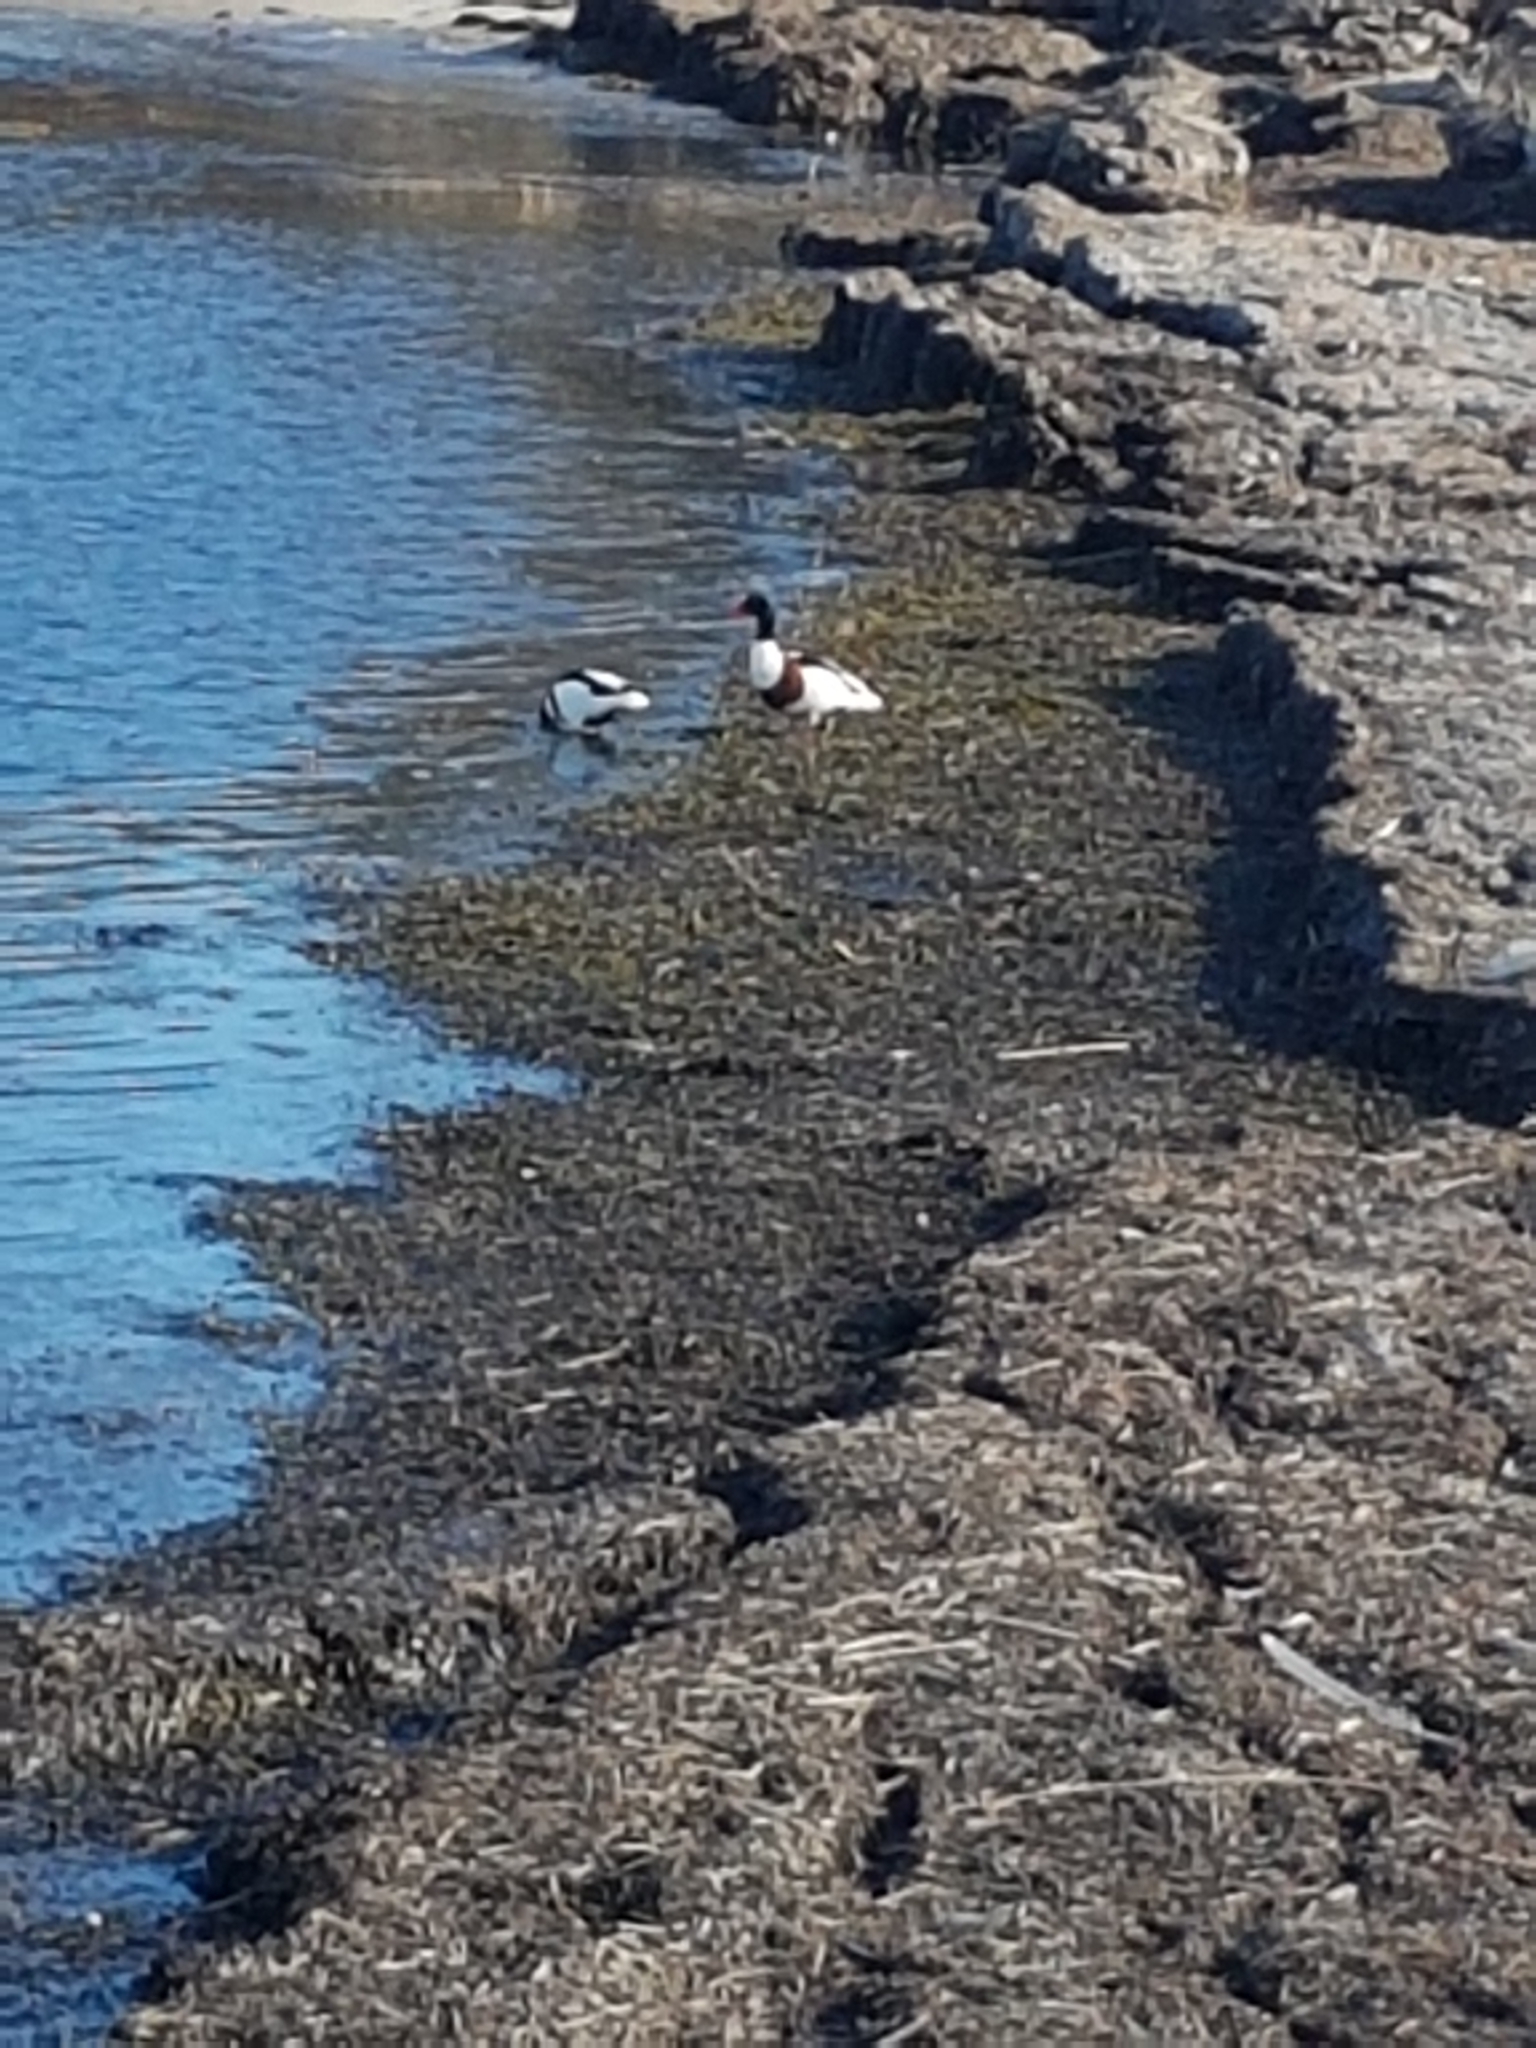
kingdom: Animalia
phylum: Chordata
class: Aves
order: Anseriformes
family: Anatidae
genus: Tadorna
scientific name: Tadorna tadorna
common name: Common shelduck
